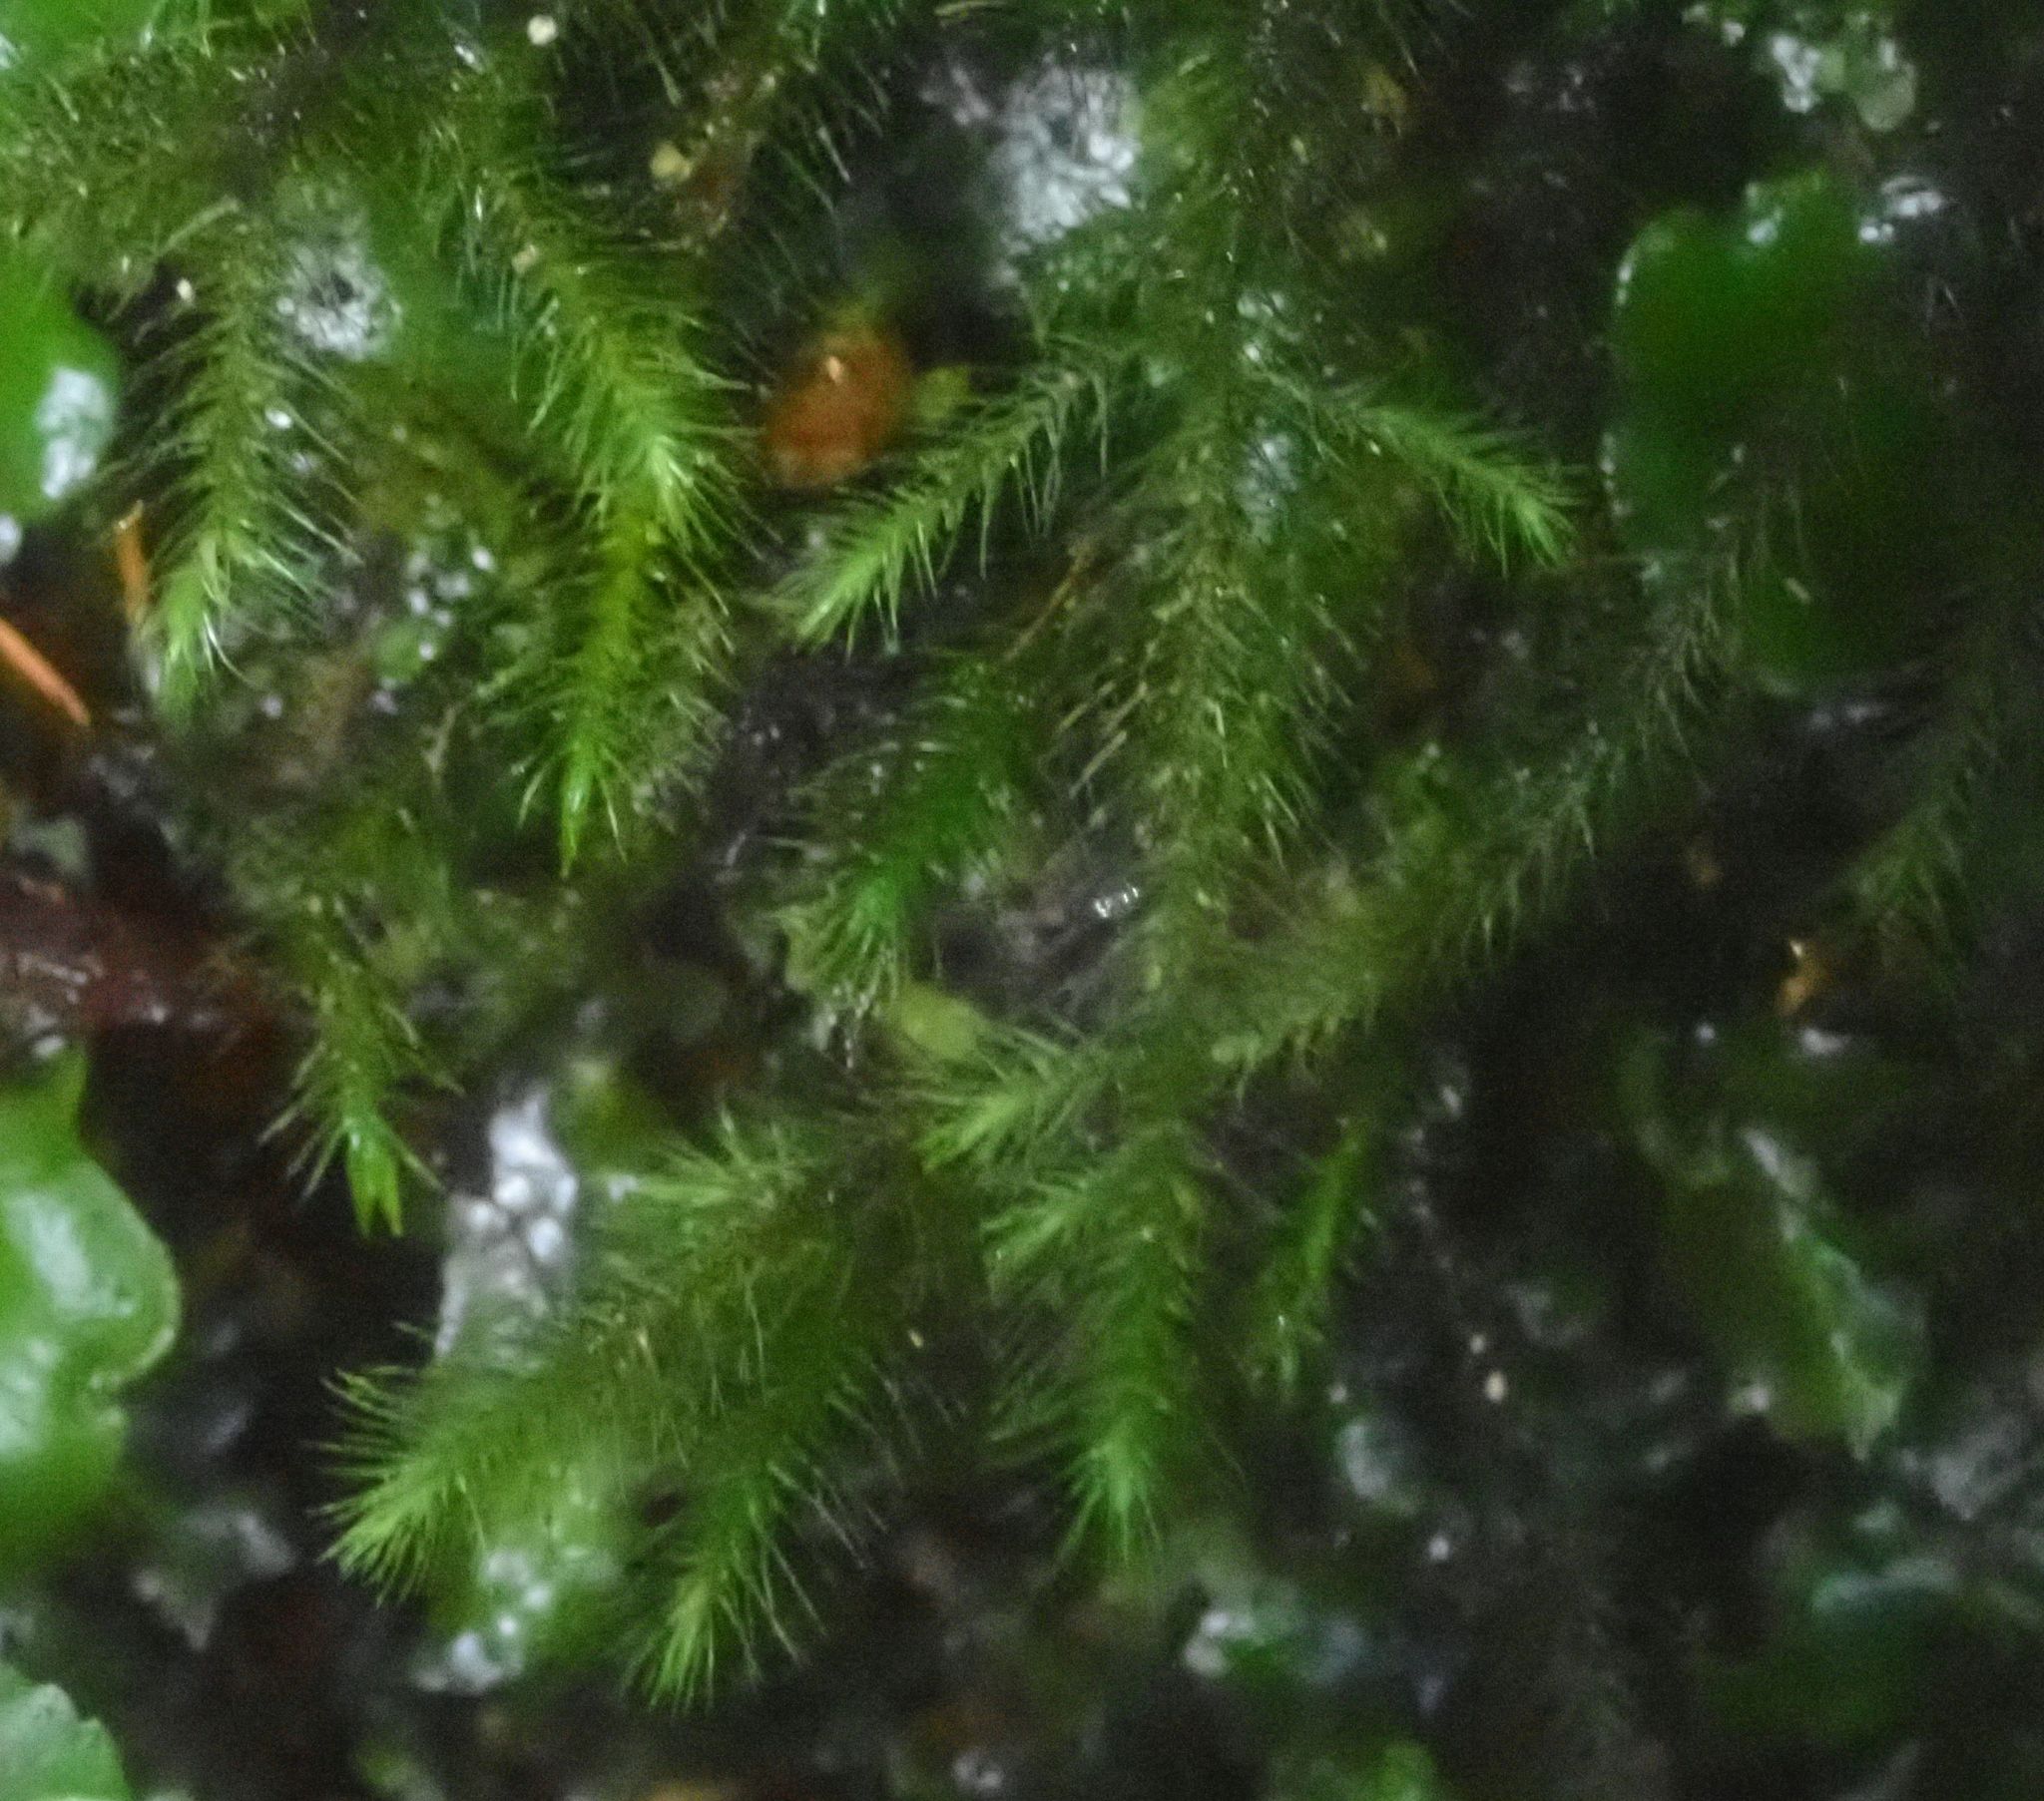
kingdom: Plantae
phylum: Bryophyta
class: Bryopsida
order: Hypnales
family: Neckeraceae
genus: Echinodiopsis
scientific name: Echinodiopsis hispida
